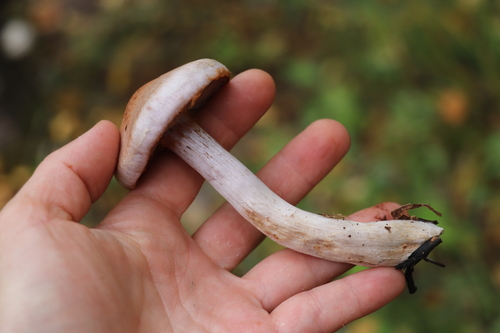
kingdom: Fungi
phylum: Basidiomycota
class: Agaricomycetes
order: Agaricales
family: Cortinariaceae
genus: Cortinarius
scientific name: Cortinarius
